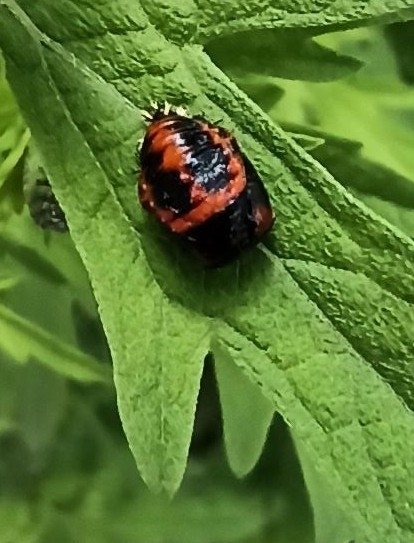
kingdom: Animalia
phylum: Arthropoda
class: Insecta
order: Coleoptera
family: Coccinellidae
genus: Harmonia
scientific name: Harmonia axyridis
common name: Harlequin ladybird
